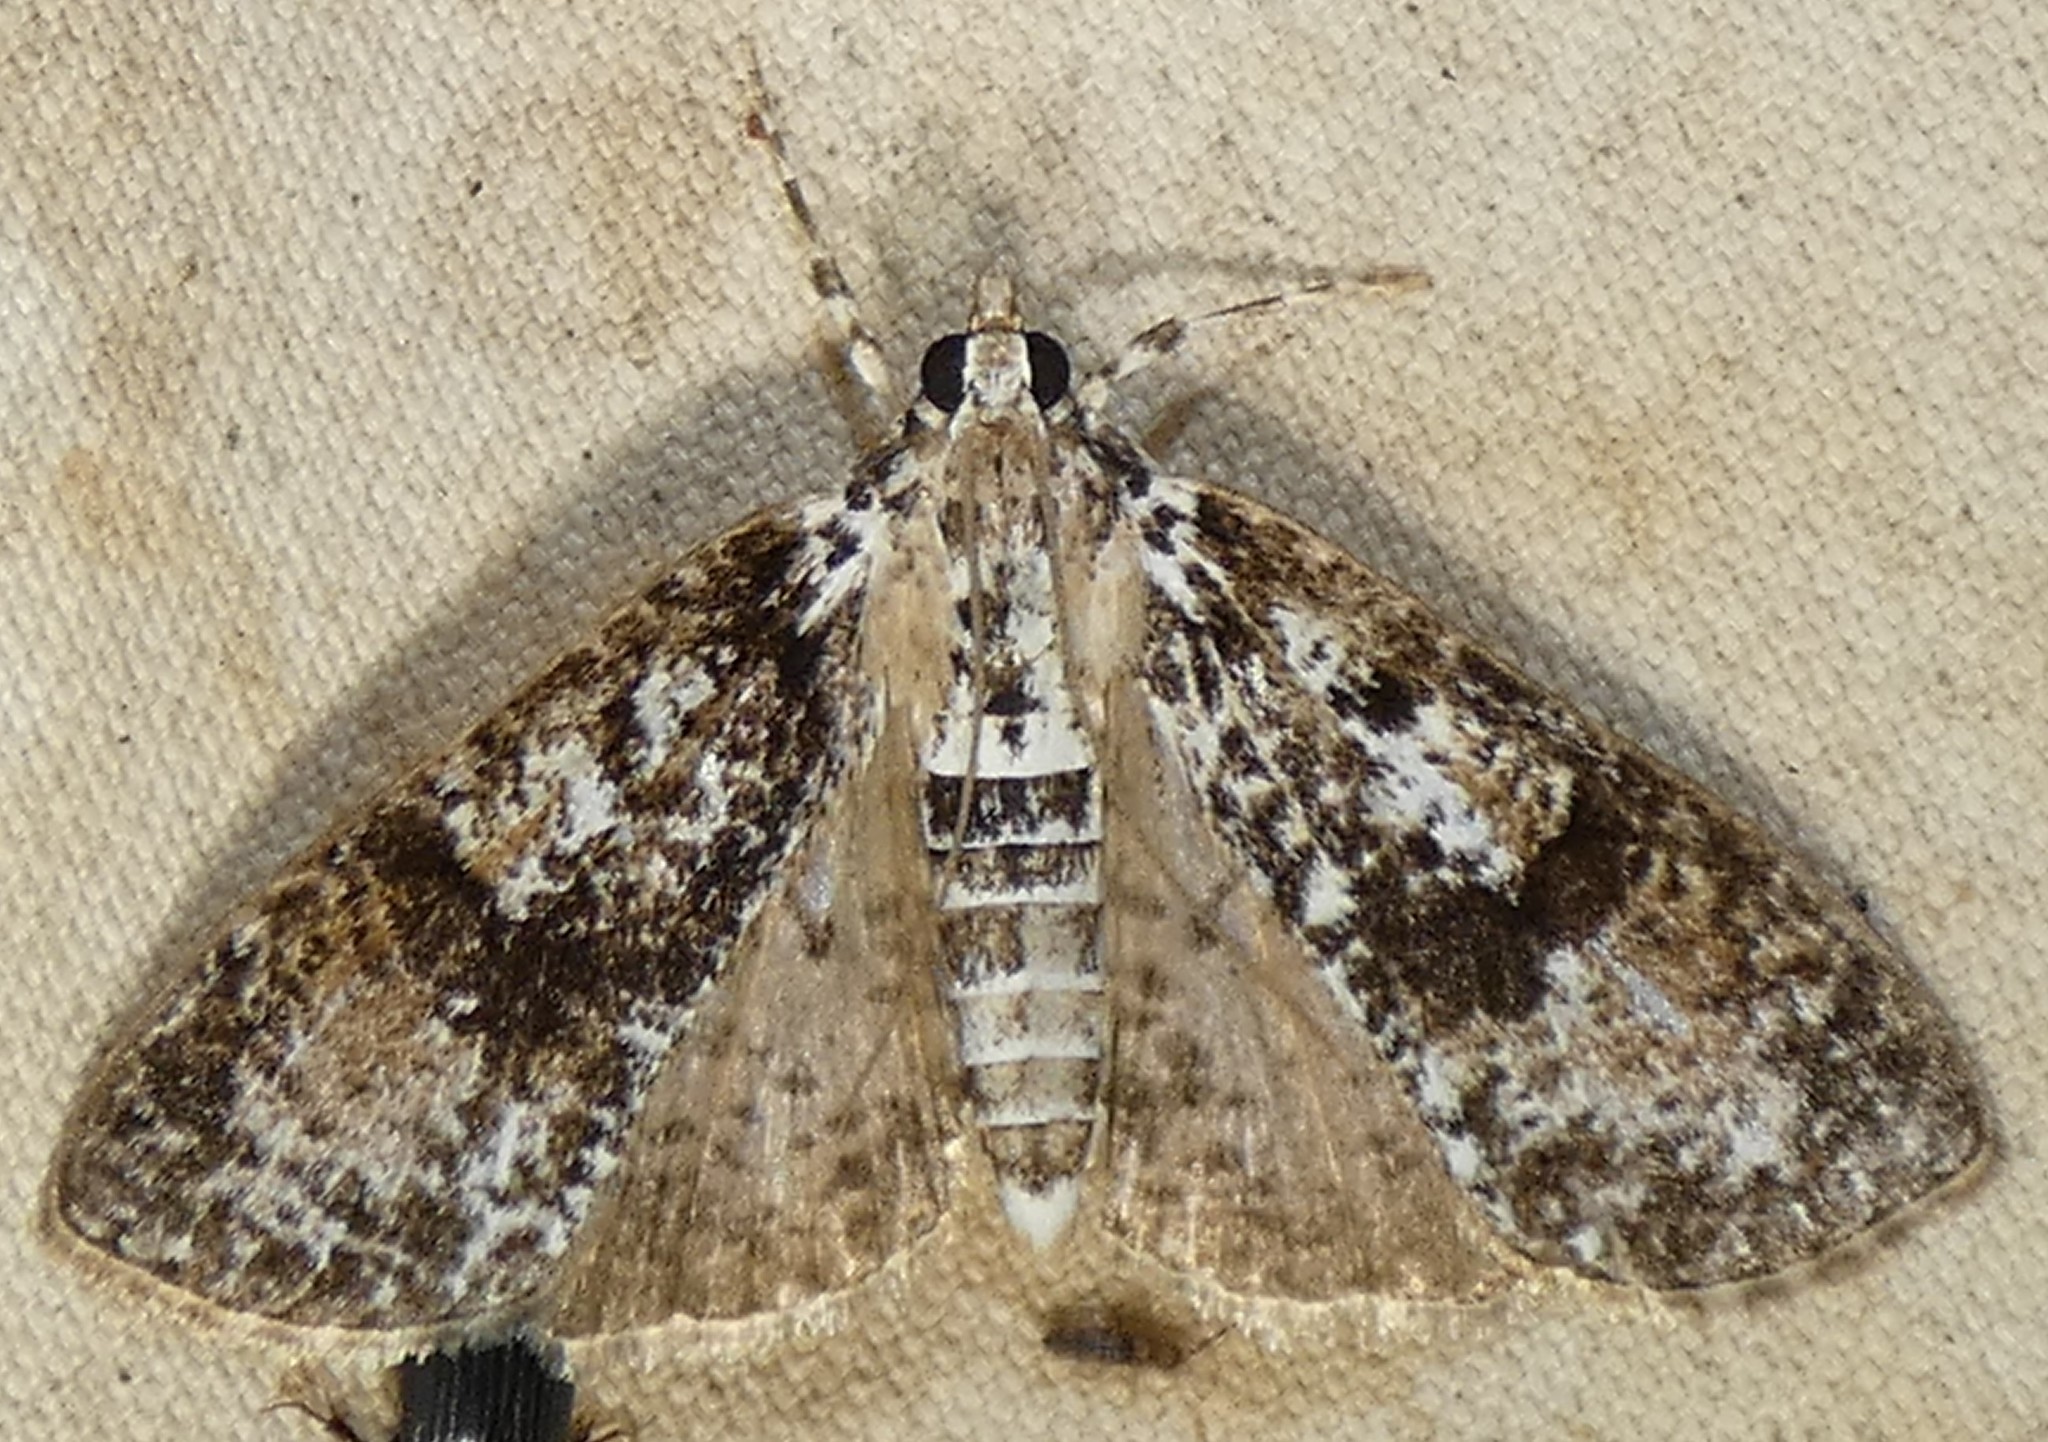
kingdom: Animalia
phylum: Arthropoda
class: Insecta
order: Lepidoptera
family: Crambidae
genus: Palpita
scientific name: Palpita magniferalis
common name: Splendid palpita moth
